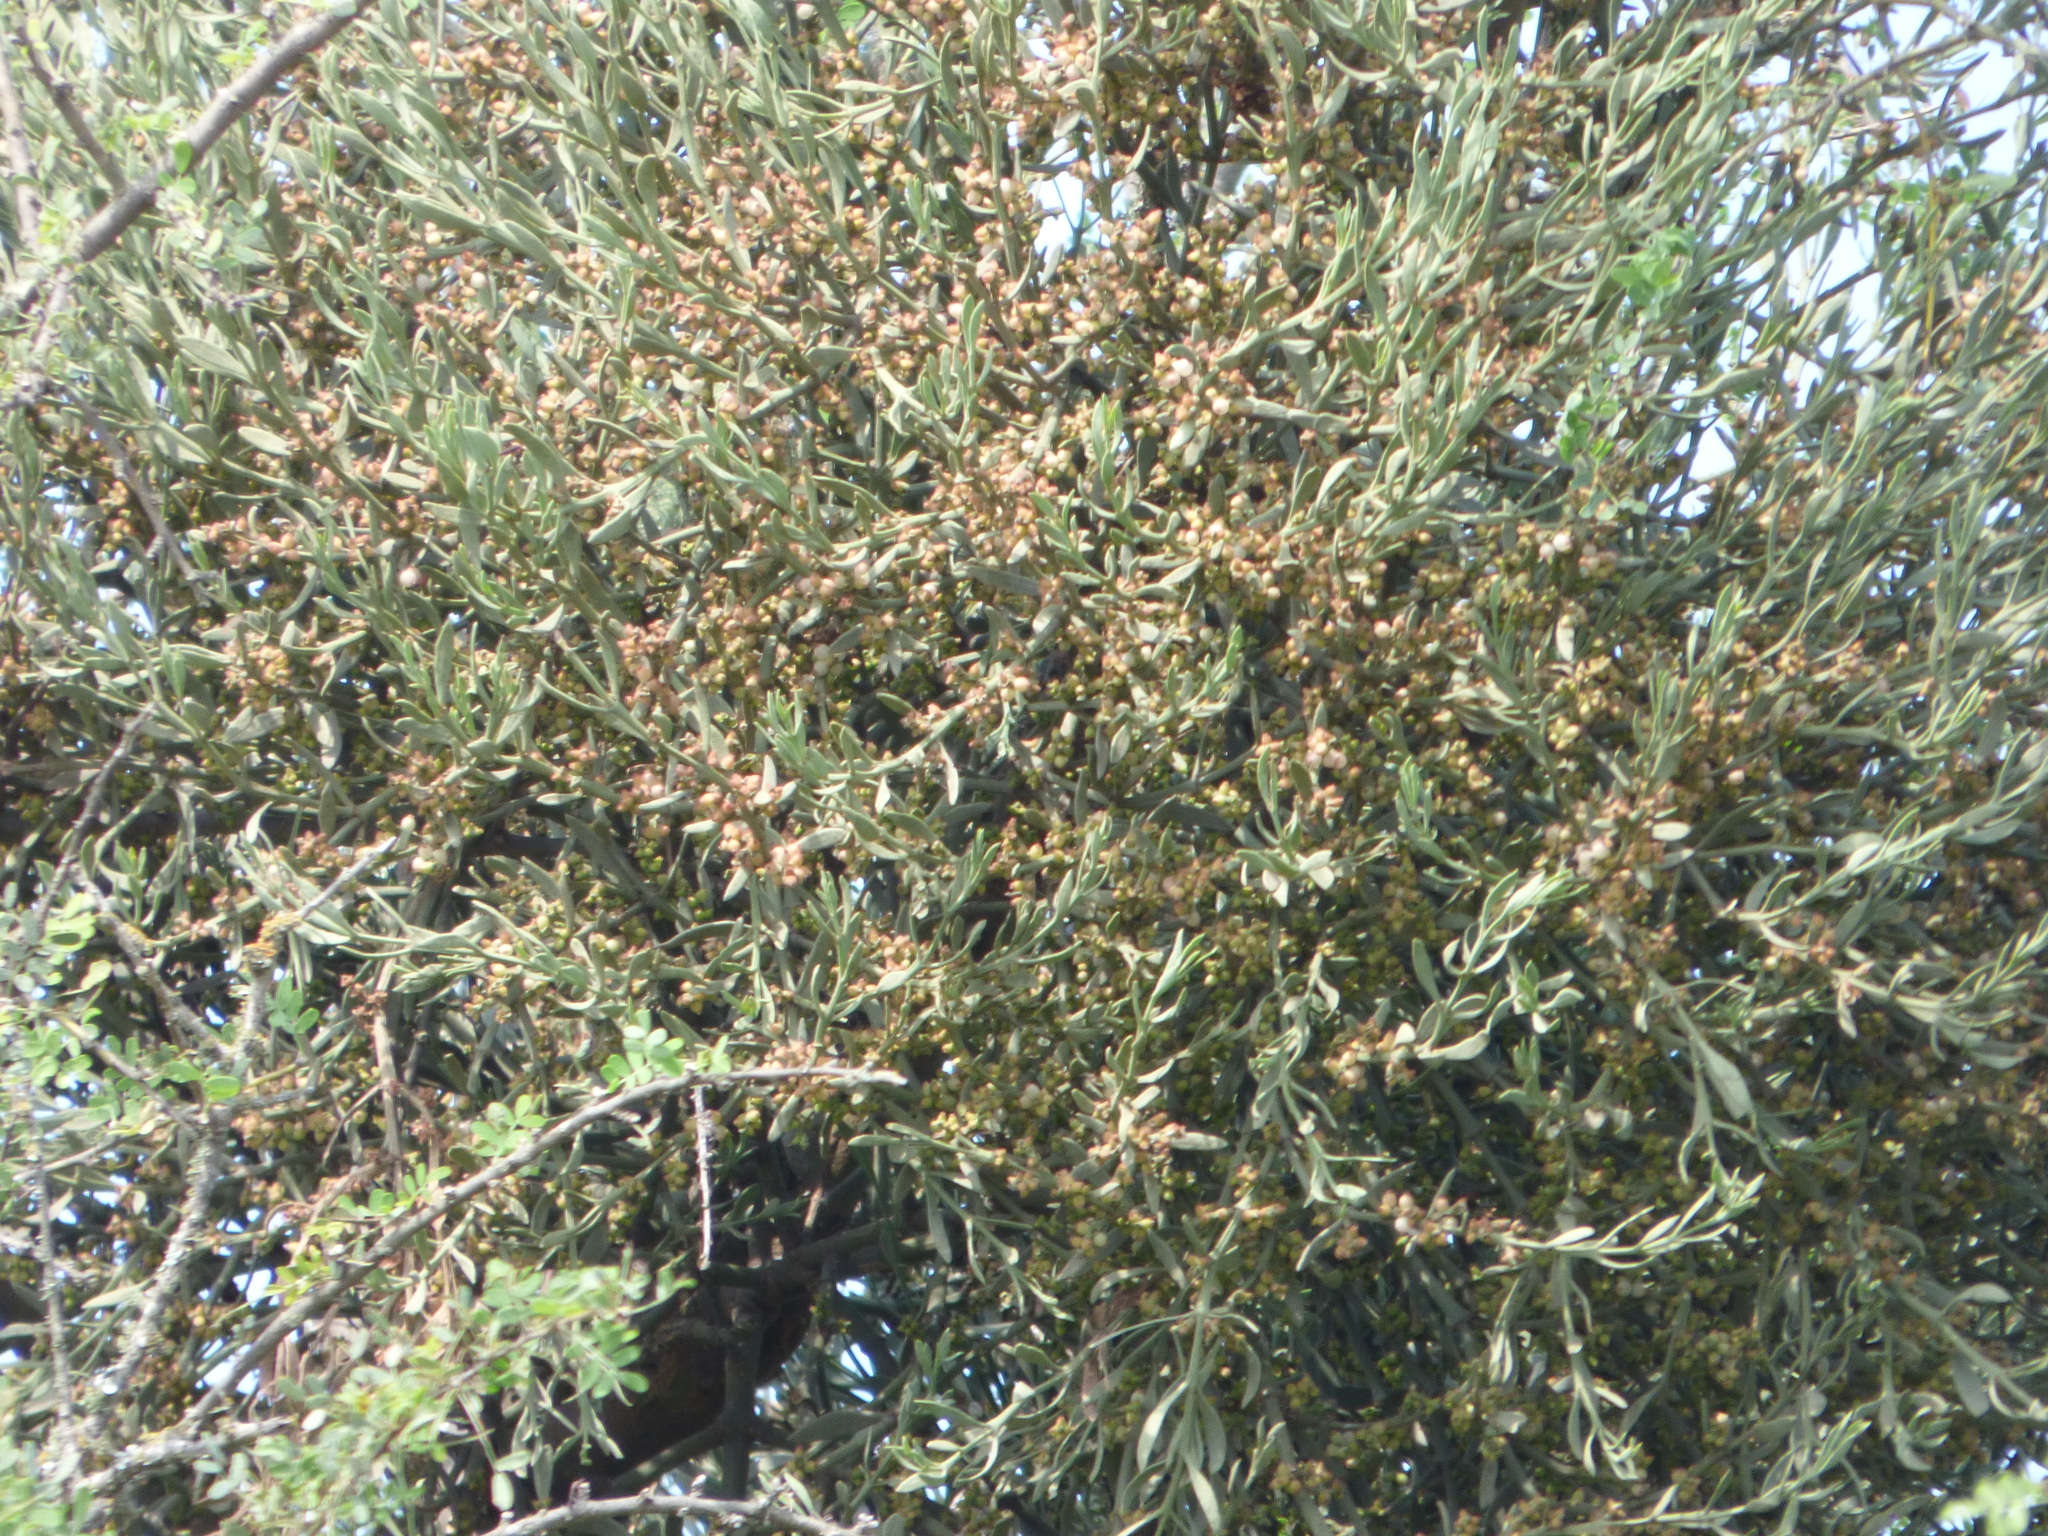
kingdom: Plantae
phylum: Tracheophyta
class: Magnoliopsida
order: Santalales
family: Viscaceae
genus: Phoradendron
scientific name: Phoradendron quadrangulare
